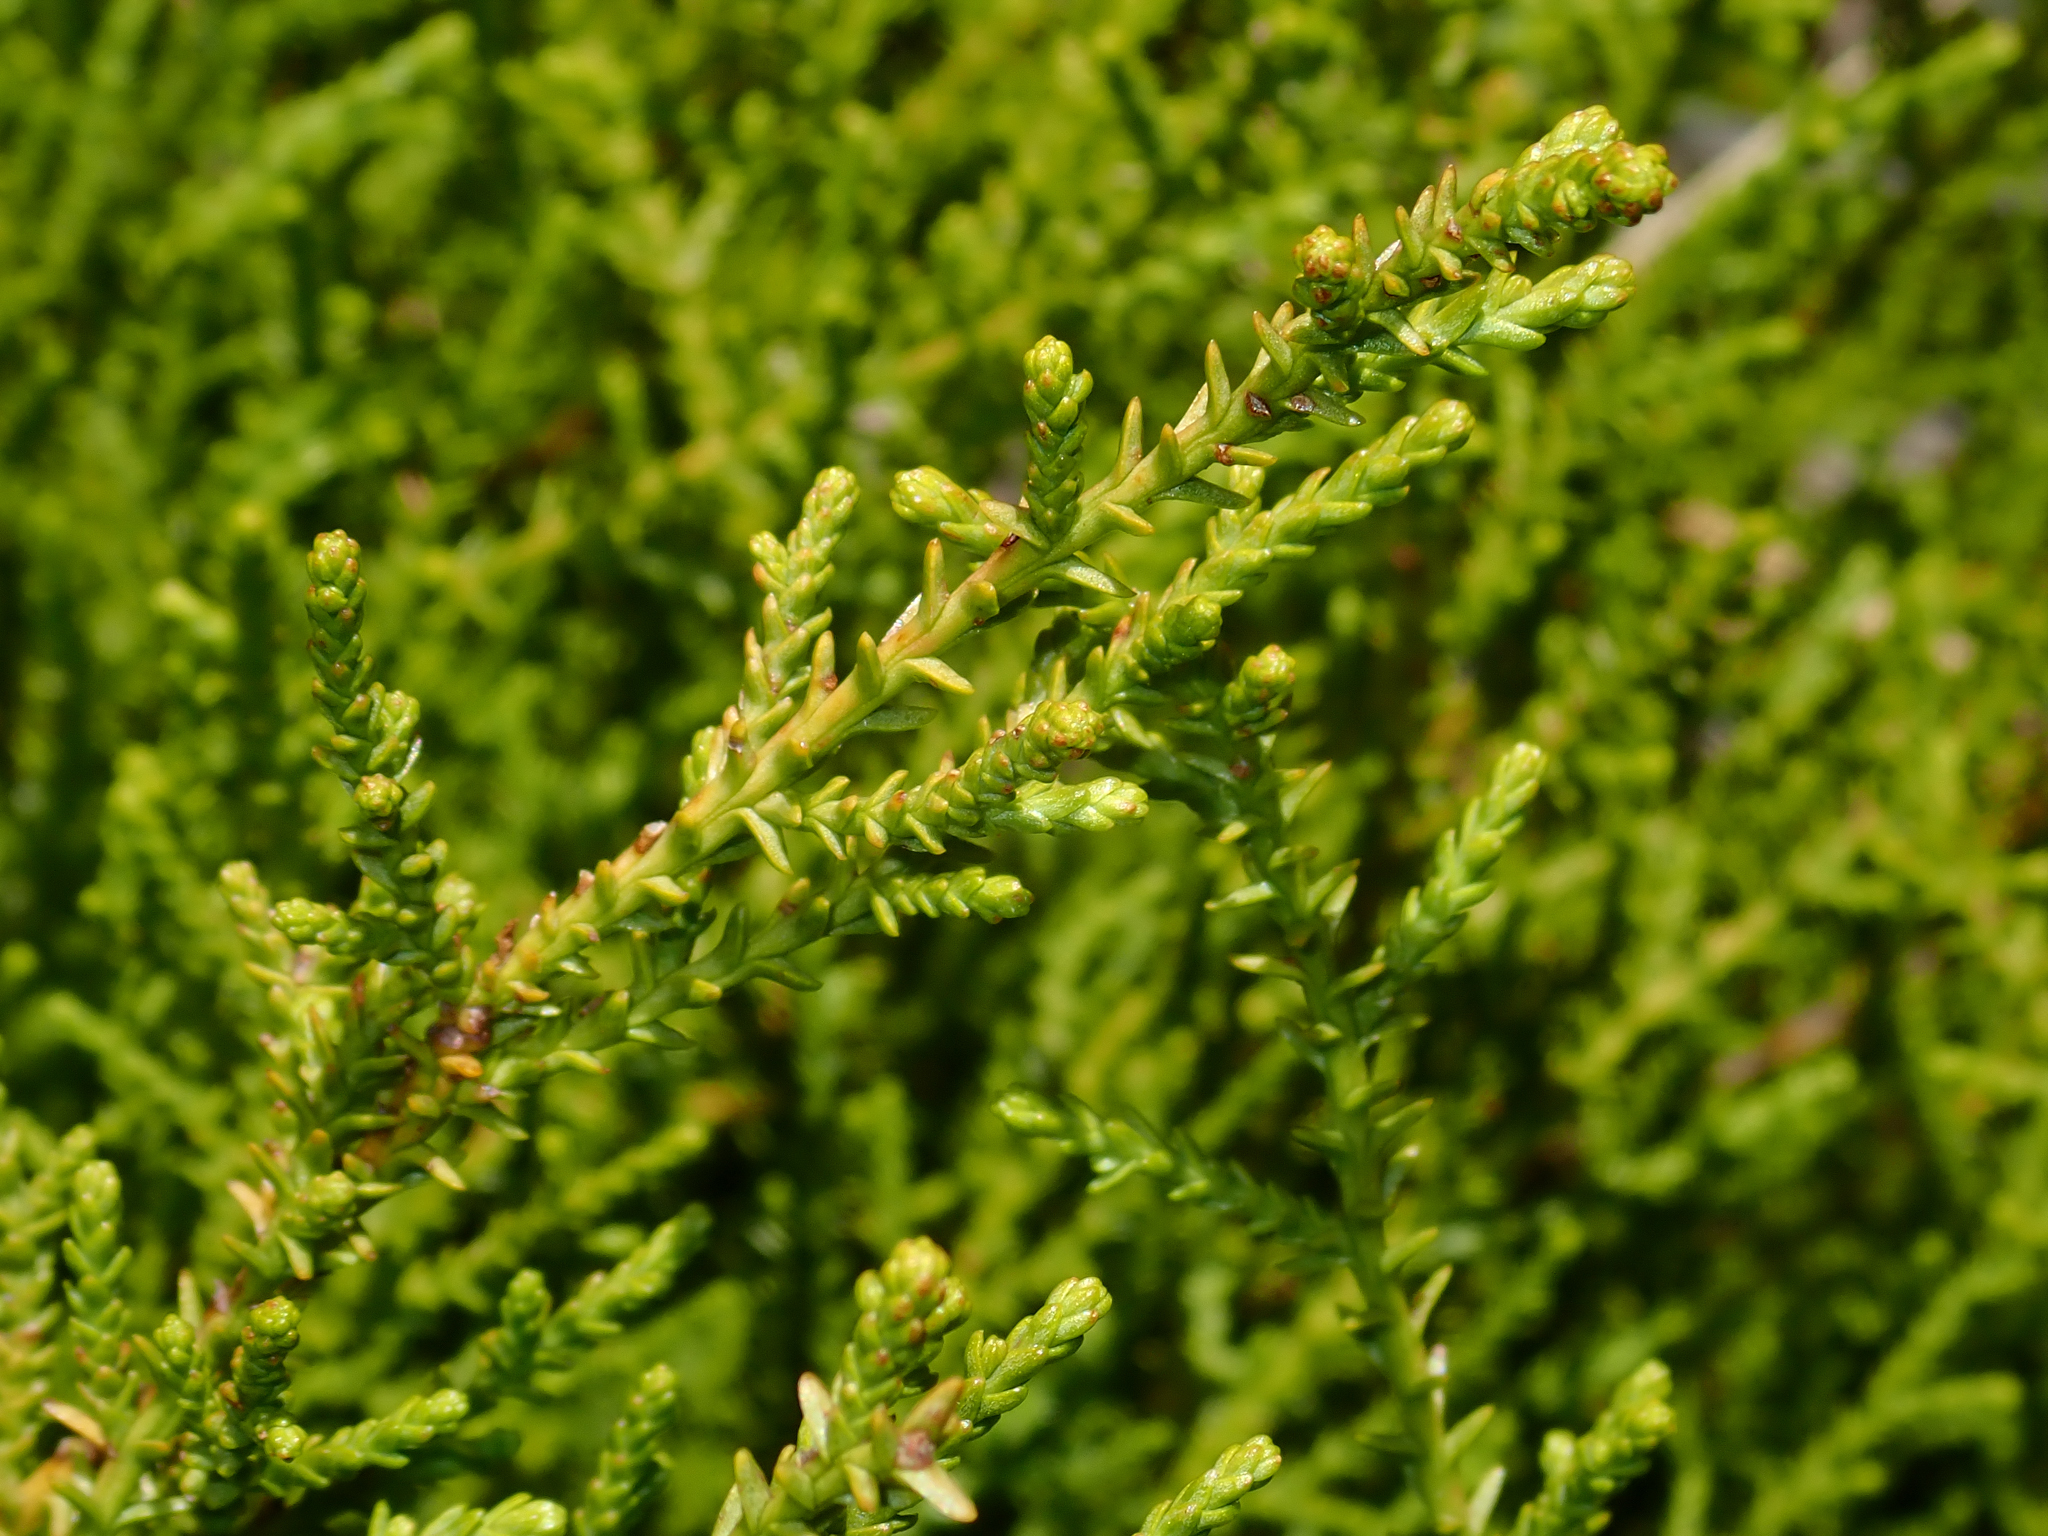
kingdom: Plantae
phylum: Tracheophyta
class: Pinopsida
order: Pinales
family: Podocarpaceae
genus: Lepidothamnus
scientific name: Lepidothamnus laxifolius
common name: Pygmy pine
